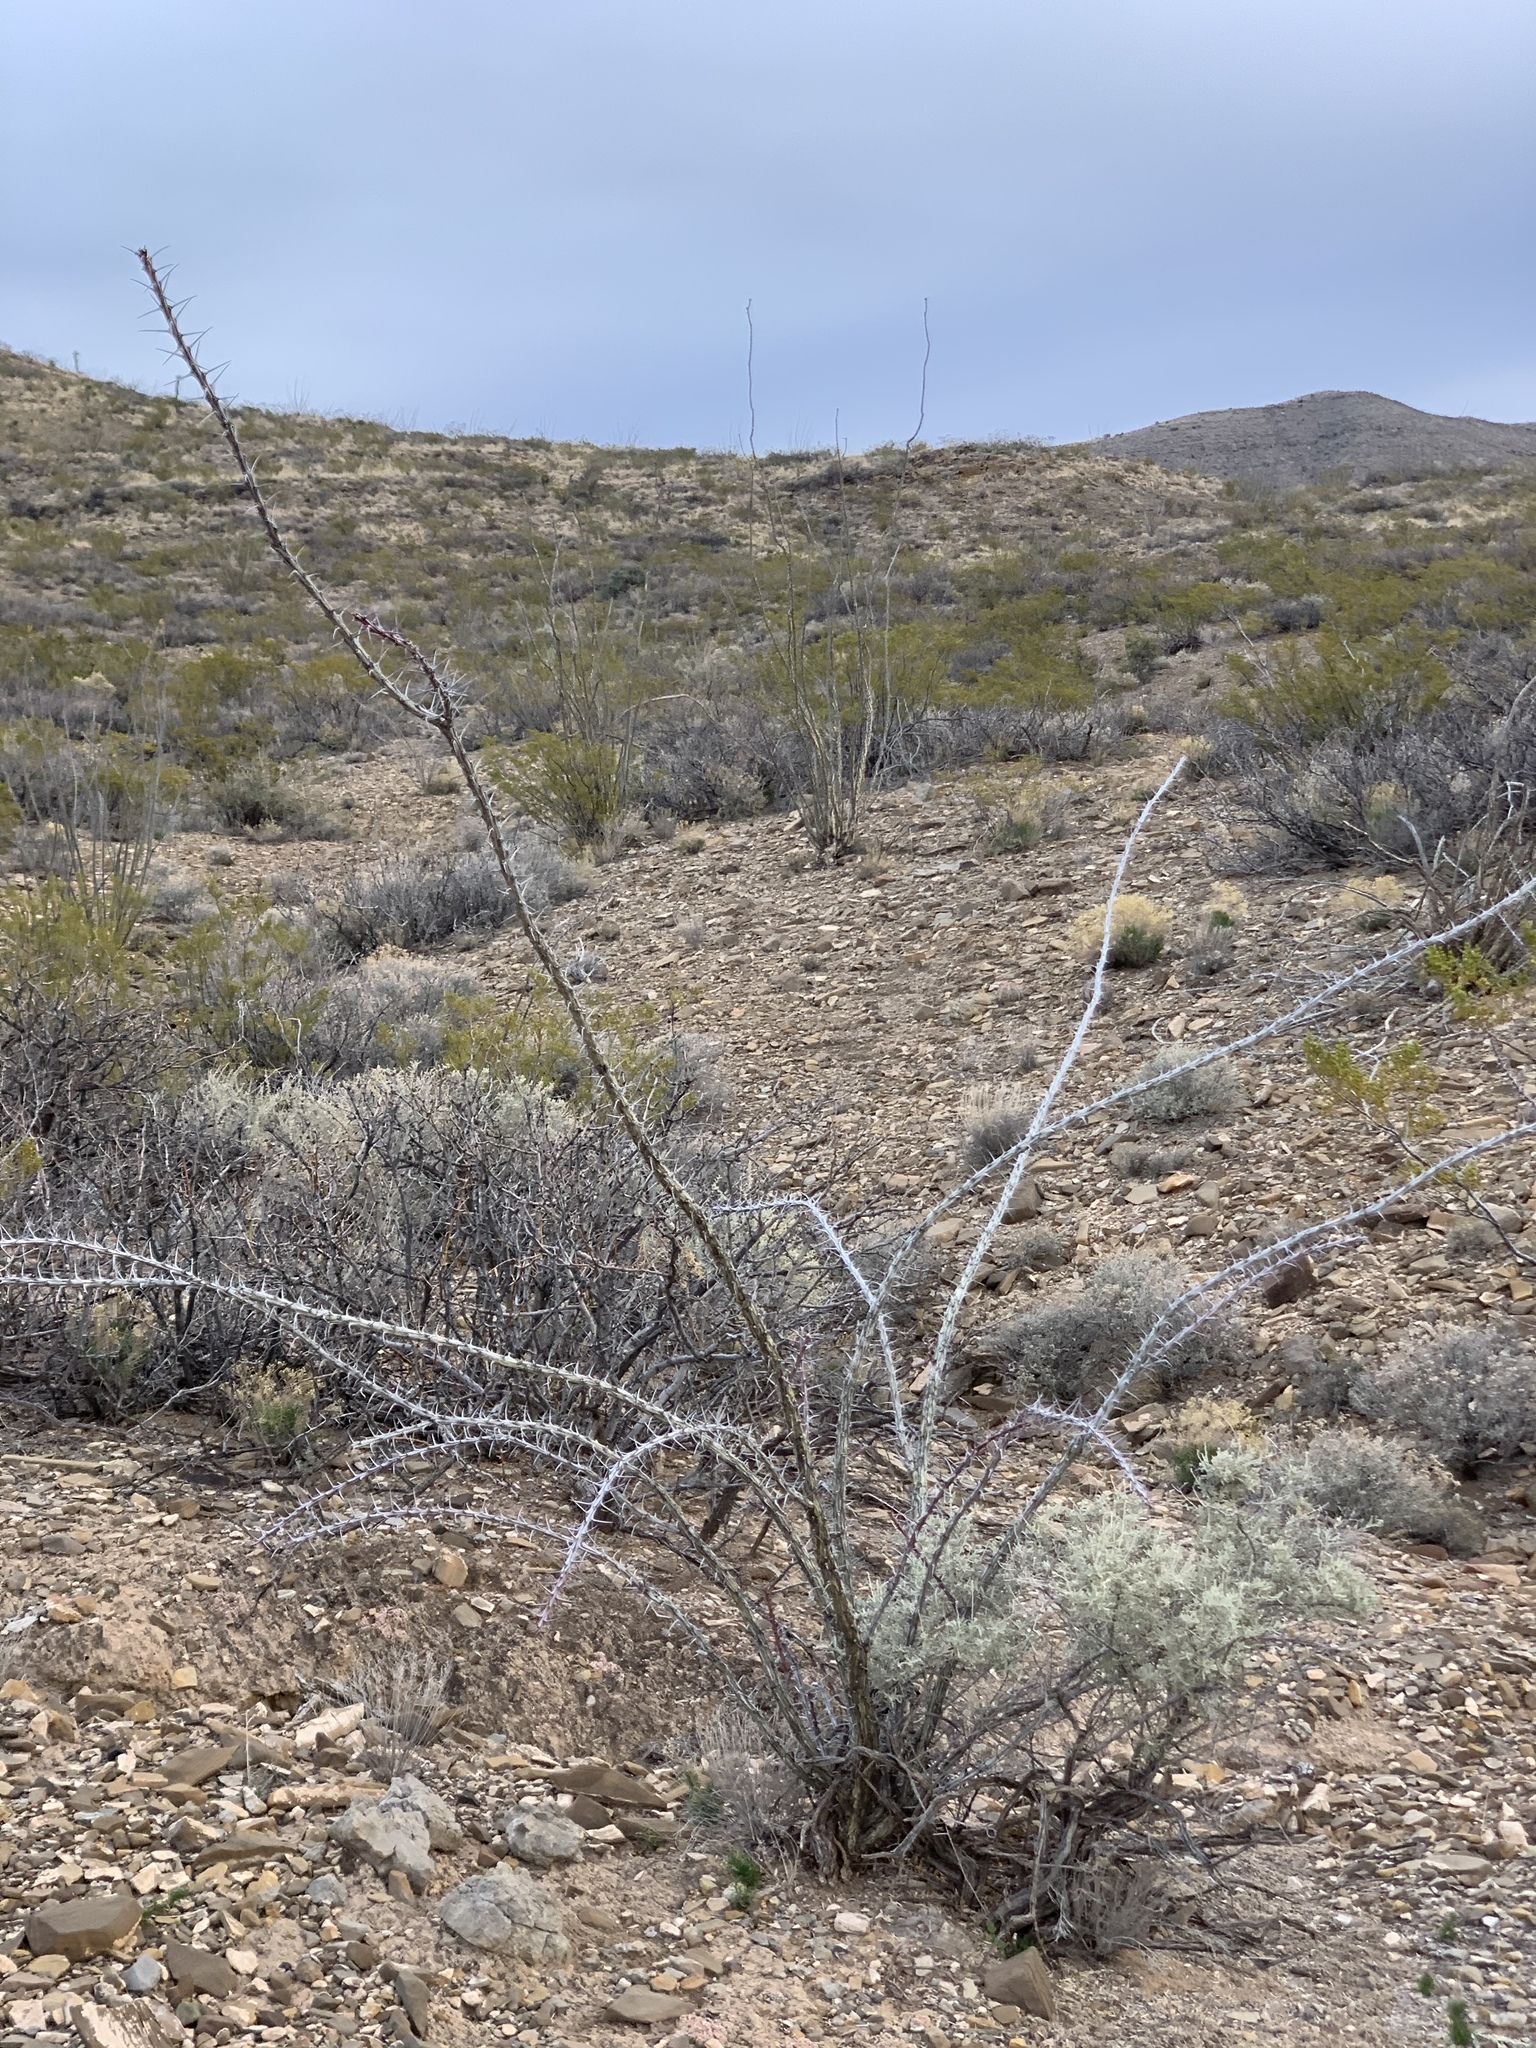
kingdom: Plantae
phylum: Tracheophyta
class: Magnoliopsida
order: Ericales
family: Fouquieriaceae
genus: Fouquieria
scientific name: Fouquieria splendens
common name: Vine-cactus
